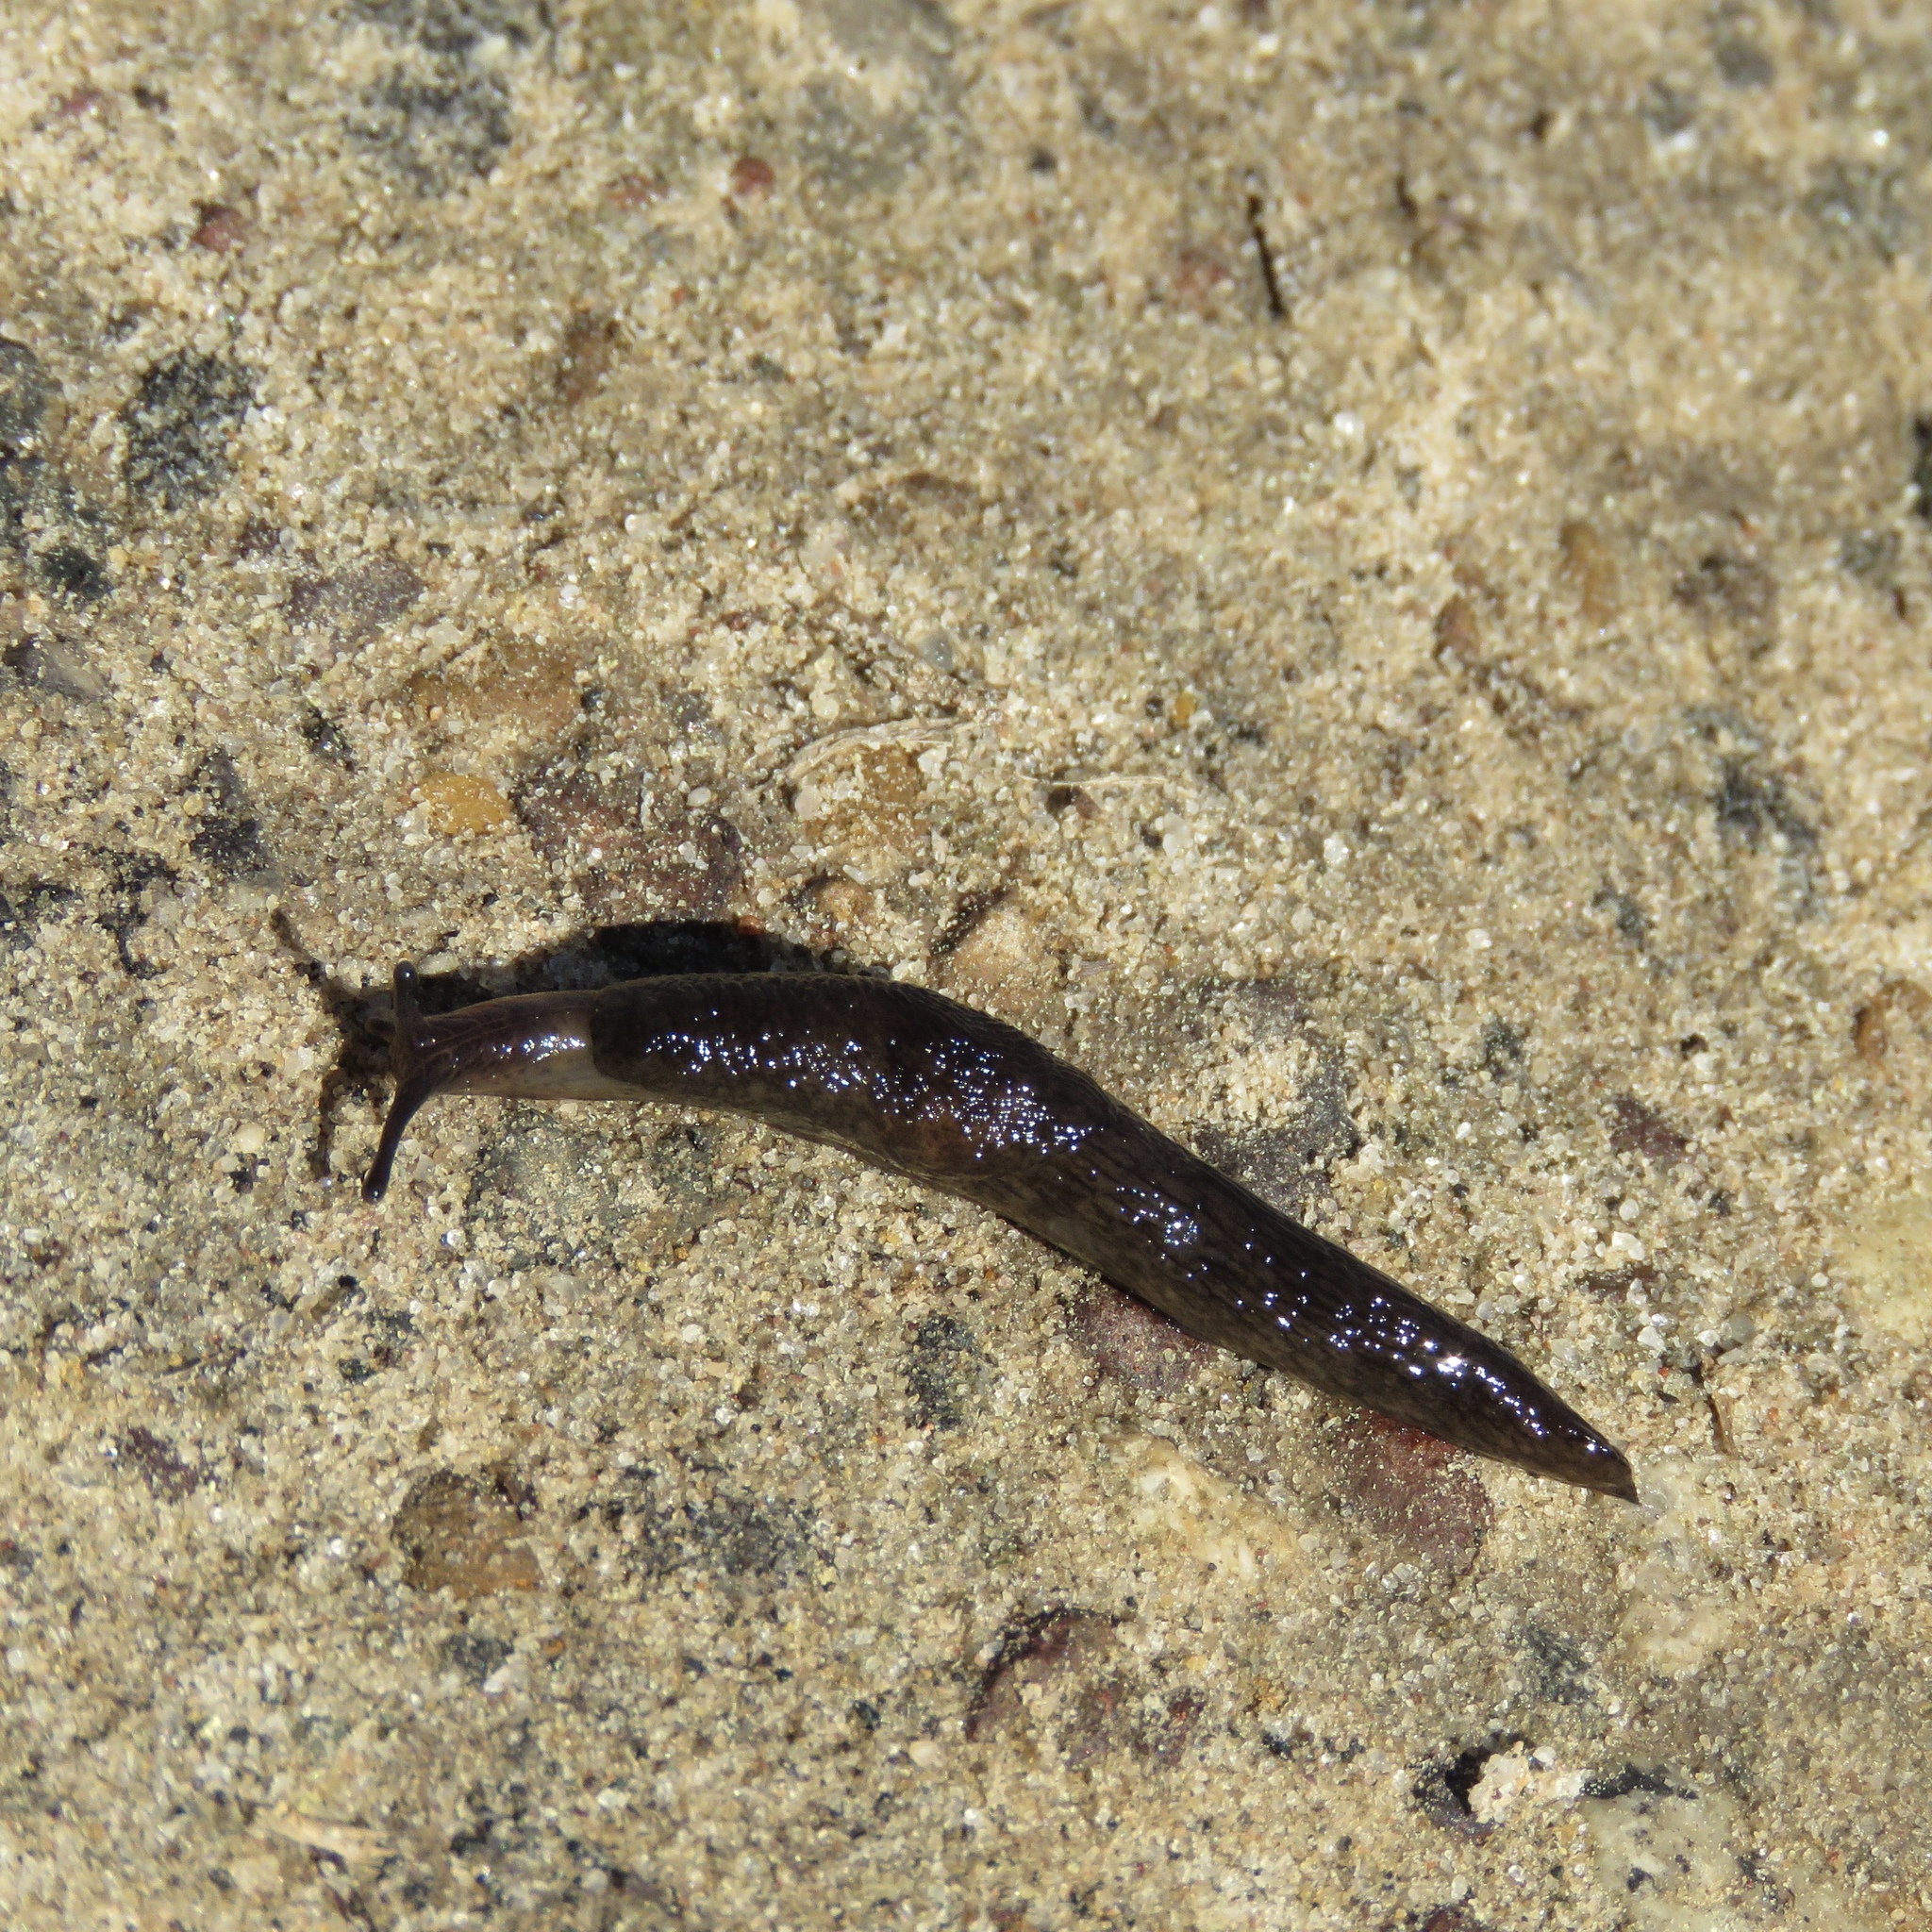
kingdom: Animalia
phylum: Mollusca
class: Gastropoda
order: Stylommatophora
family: Agriolimacidae
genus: Deroceras
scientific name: Deroceras reticulatum
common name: Gray field slug
